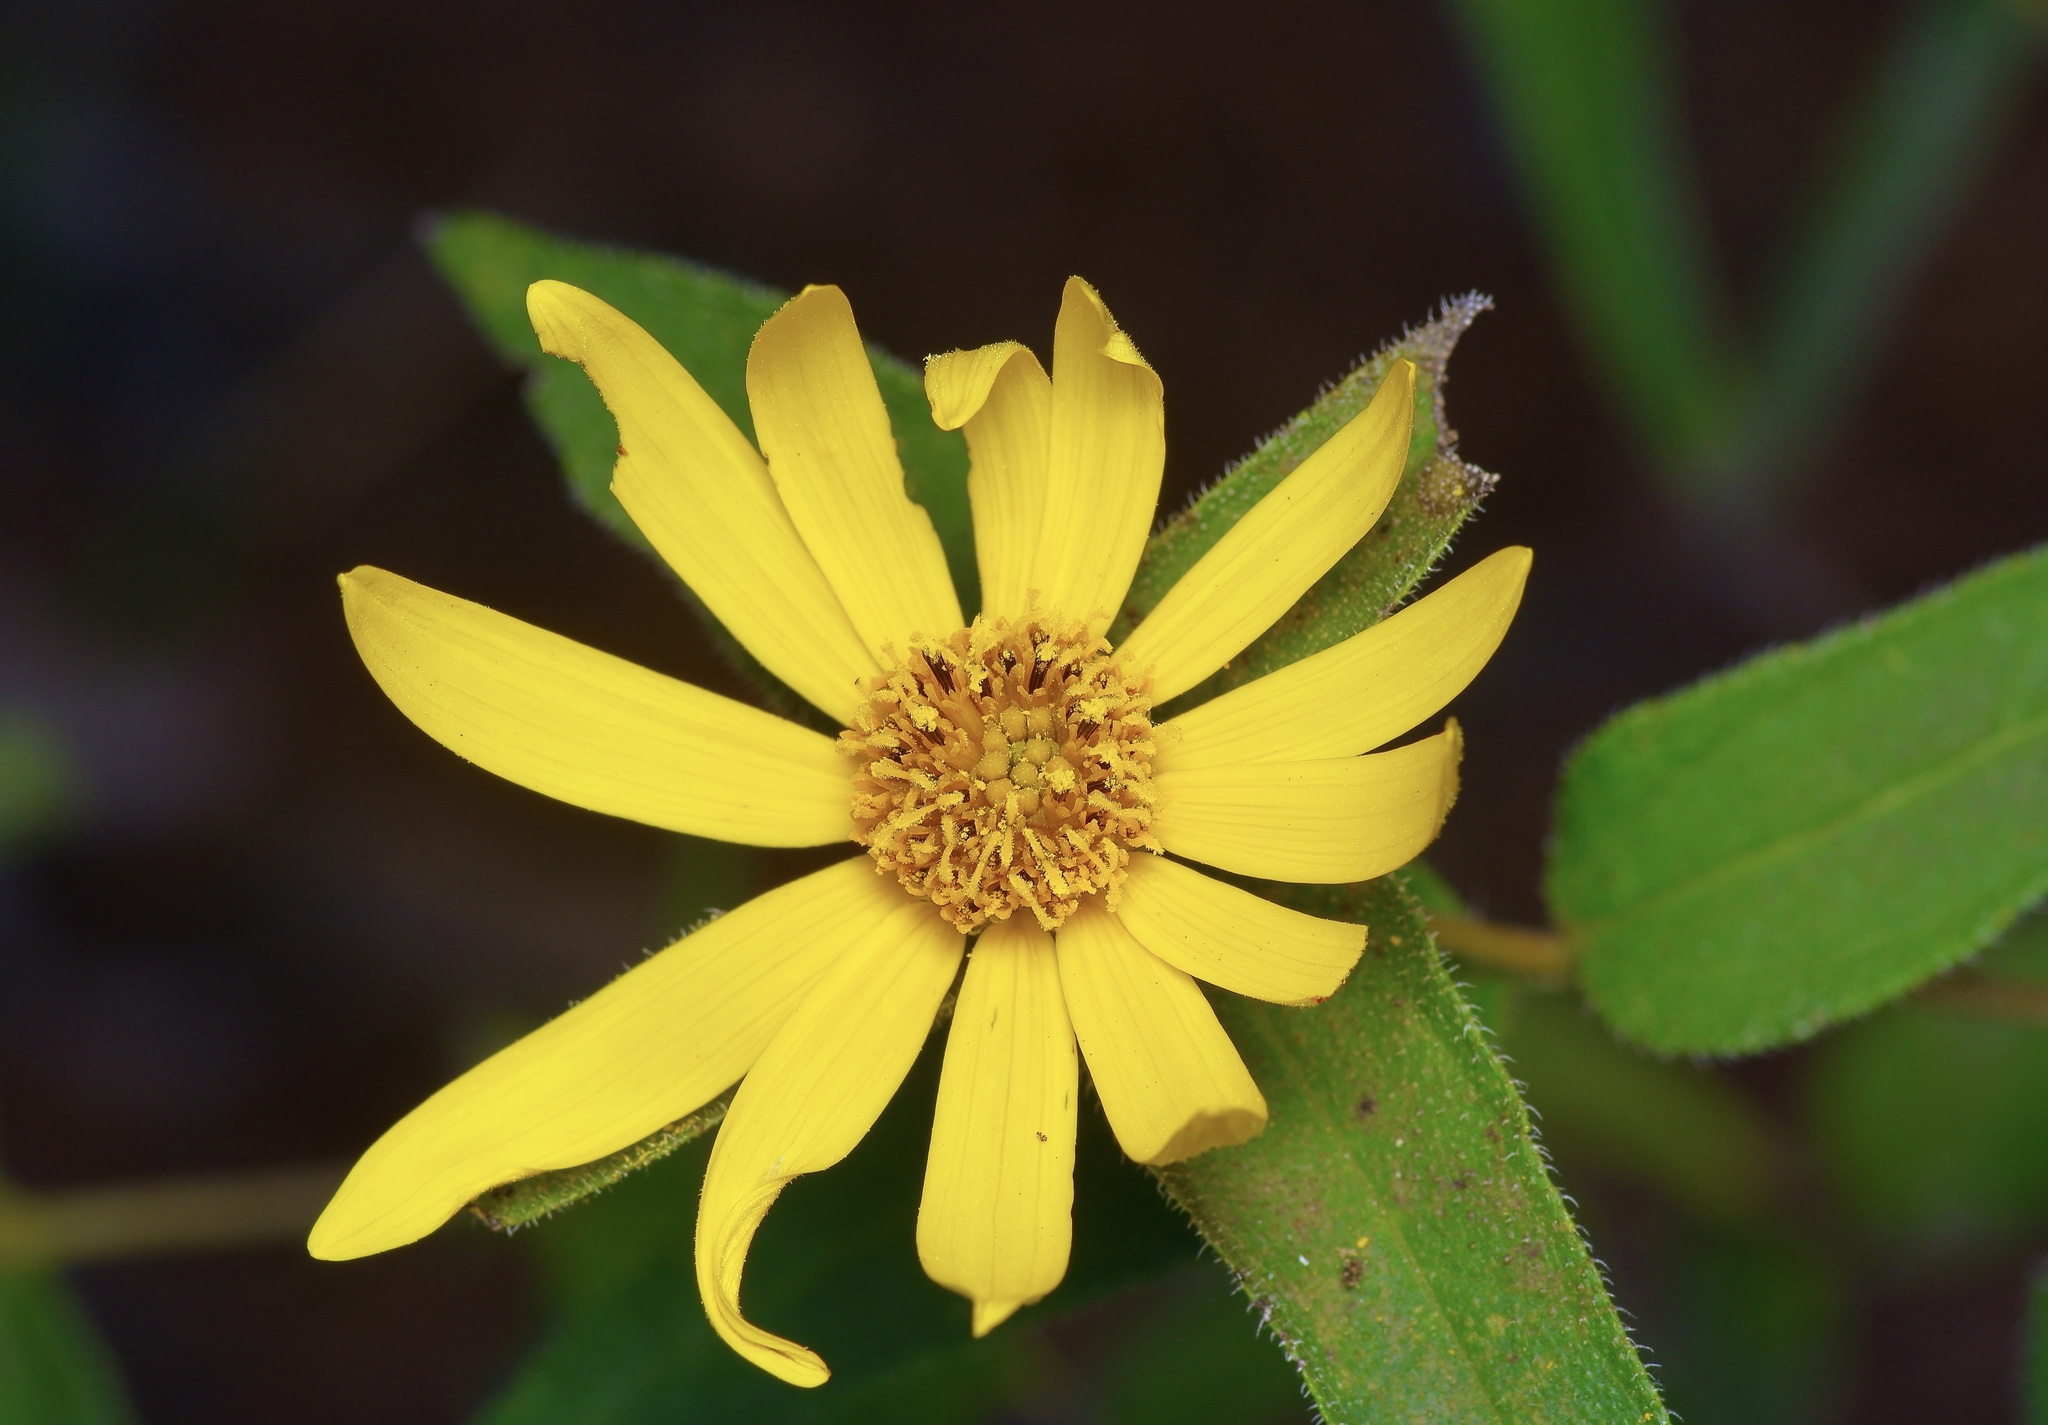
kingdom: Plantae
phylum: Tracheophyta
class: Magnoliopsida
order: Asterales
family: Asteraceae
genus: Helianthus
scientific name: Helianthus hirsutus
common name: Hairy sunflower
